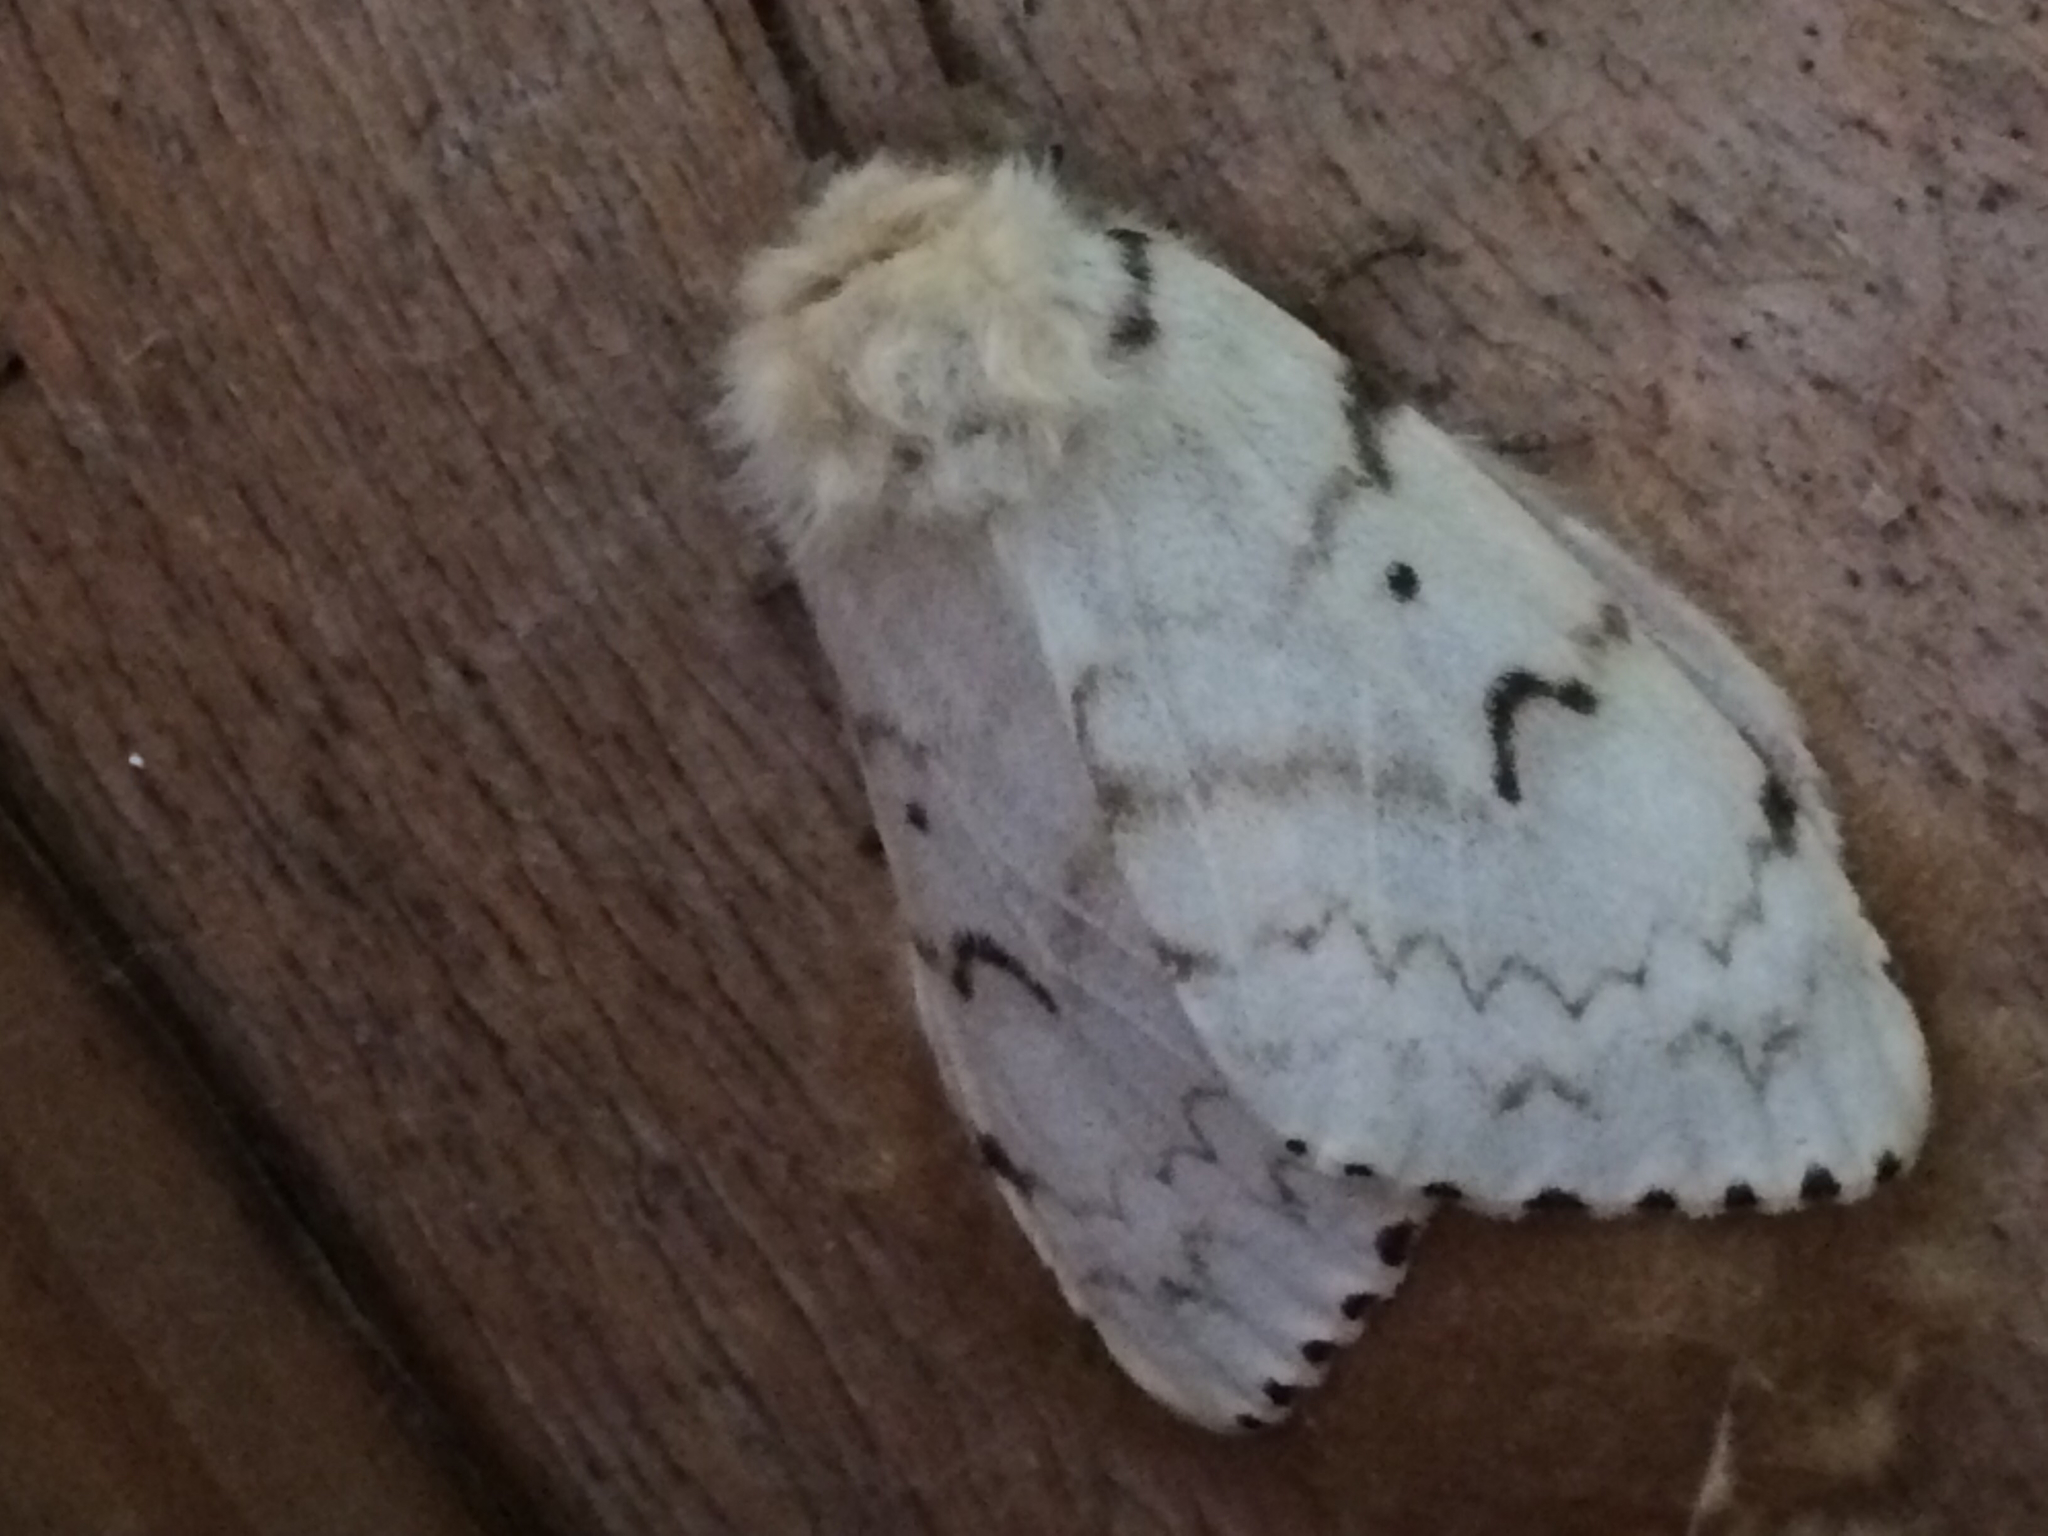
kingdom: Animalia
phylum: Arthropoda
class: Insecta
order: Lepidoptera
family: Erebidae
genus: Lymantria
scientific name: Lymantria dispar
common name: Gypsy moth
